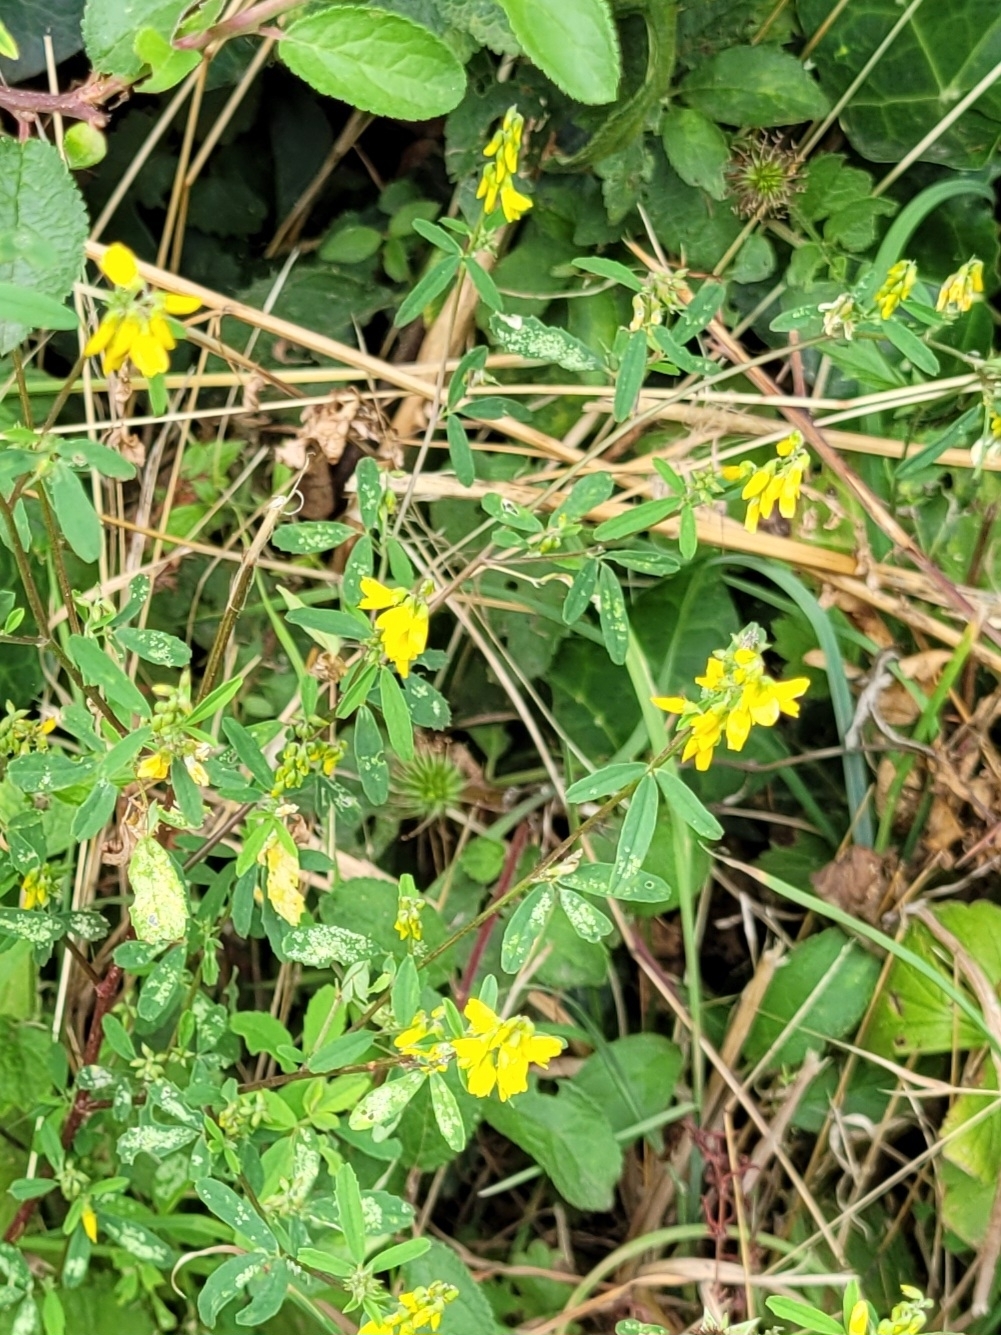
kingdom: Plantae
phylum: Tracheophyta
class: Magnoliopsida
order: Fabales
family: Fabaceae
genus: Melilotus
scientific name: Melilotus officinalis
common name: Sweetclover
